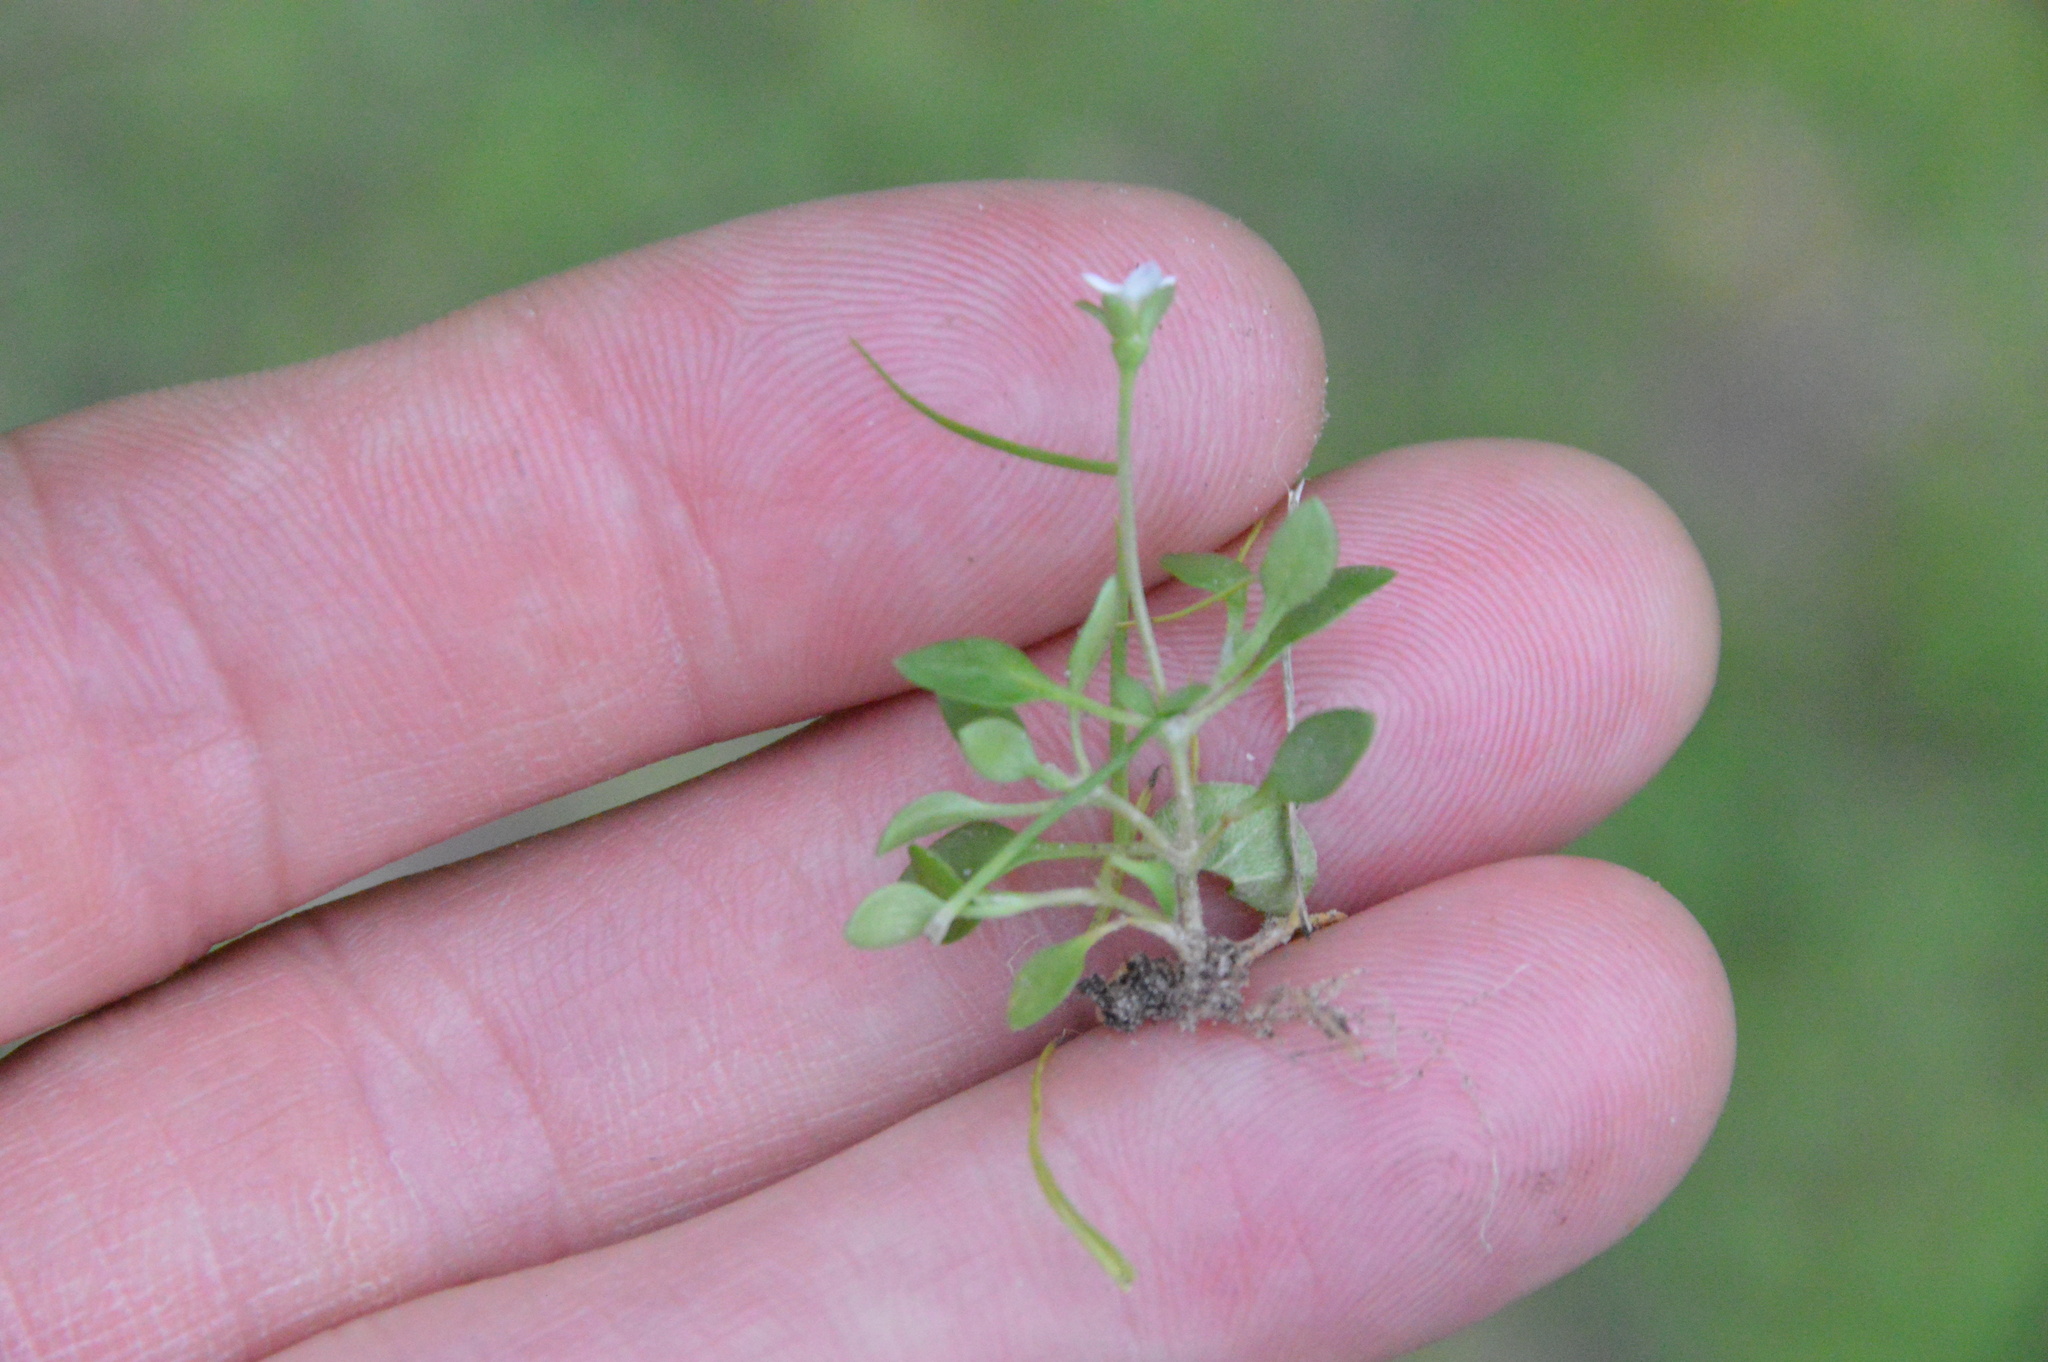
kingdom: Plantae
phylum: Tracheophyta
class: Magnoliopsida
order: Gentianales
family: Rubiaceae
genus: Houstonia
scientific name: Houstonia micrantha
